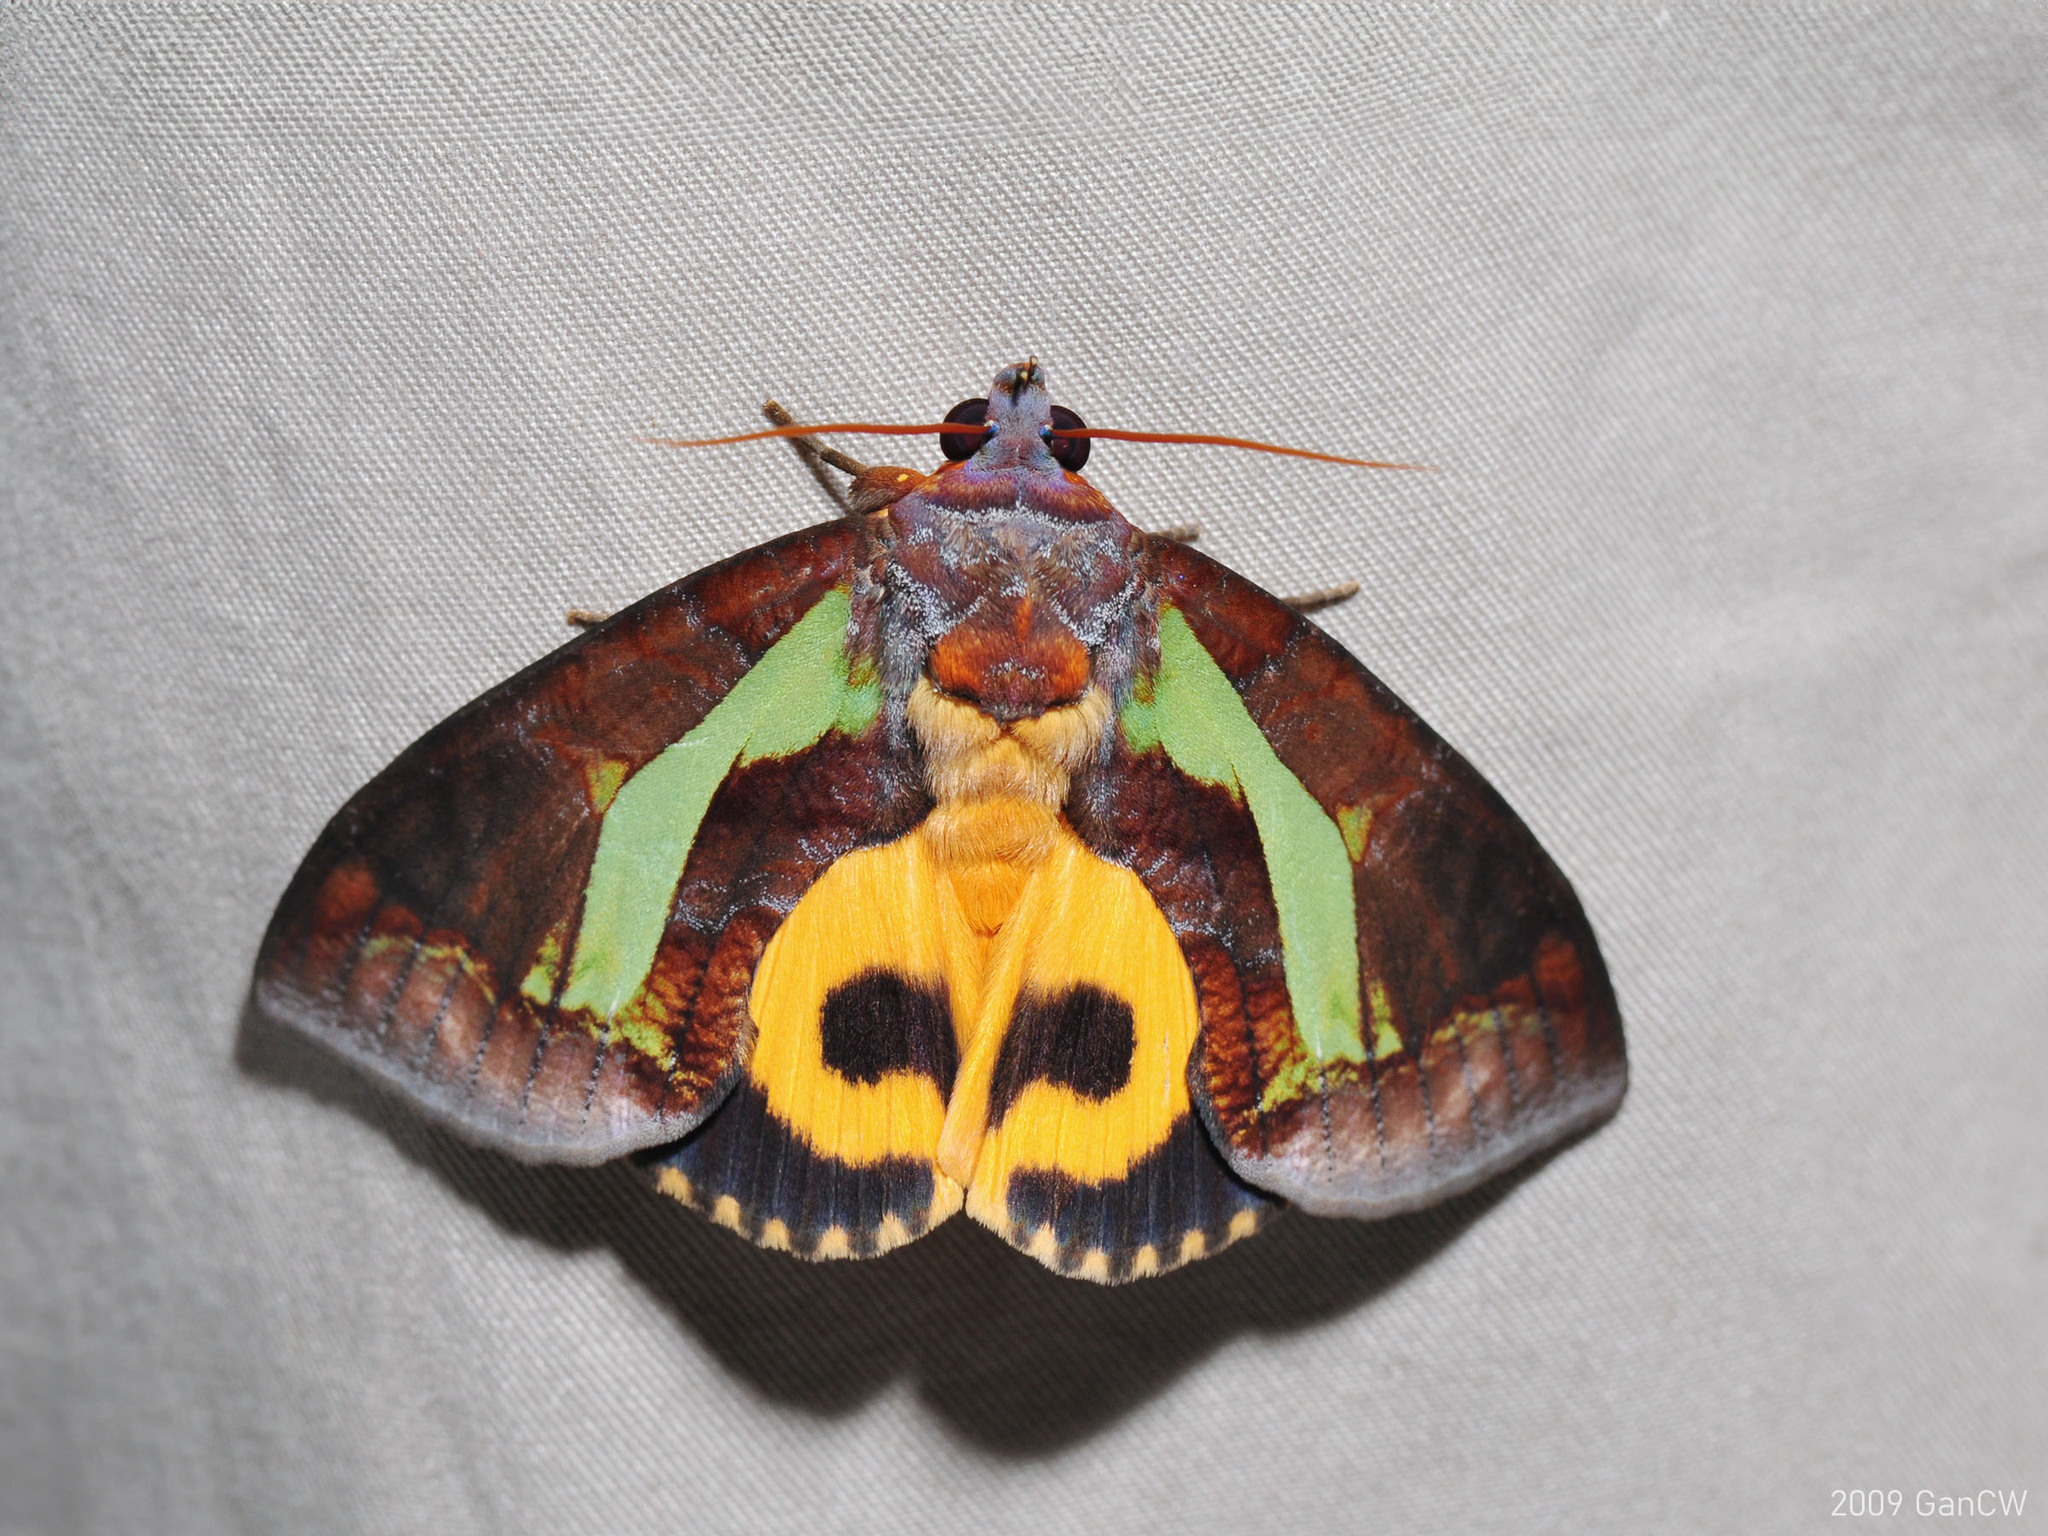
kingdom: Animalia
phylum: Arthropoda
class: Insecta
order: Lepidoptera
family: Erebidae
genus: Eudocima
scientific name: Eudocima homaena
